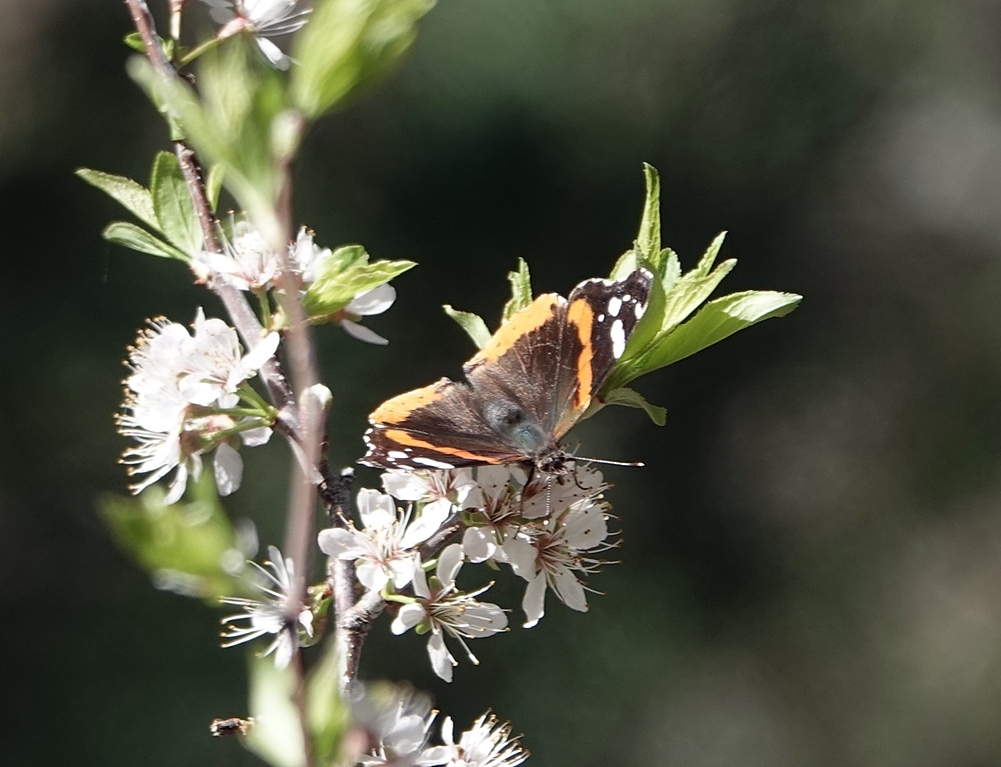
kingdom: Animalia
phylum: Arthropoda
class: Insecta
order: Lepidoptera
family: Nymphalidae
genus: Vanessa
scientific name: Vanessa atalanta
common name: Red admiral
